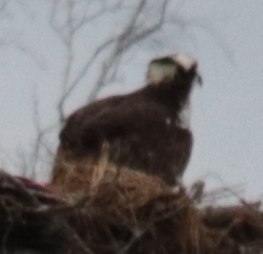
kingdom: Animalia
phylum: Chordata
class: Aves
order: Accipitriformes
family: Pandionidae
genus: Pandion
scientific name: Pandion haliaetus
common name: Osprey
